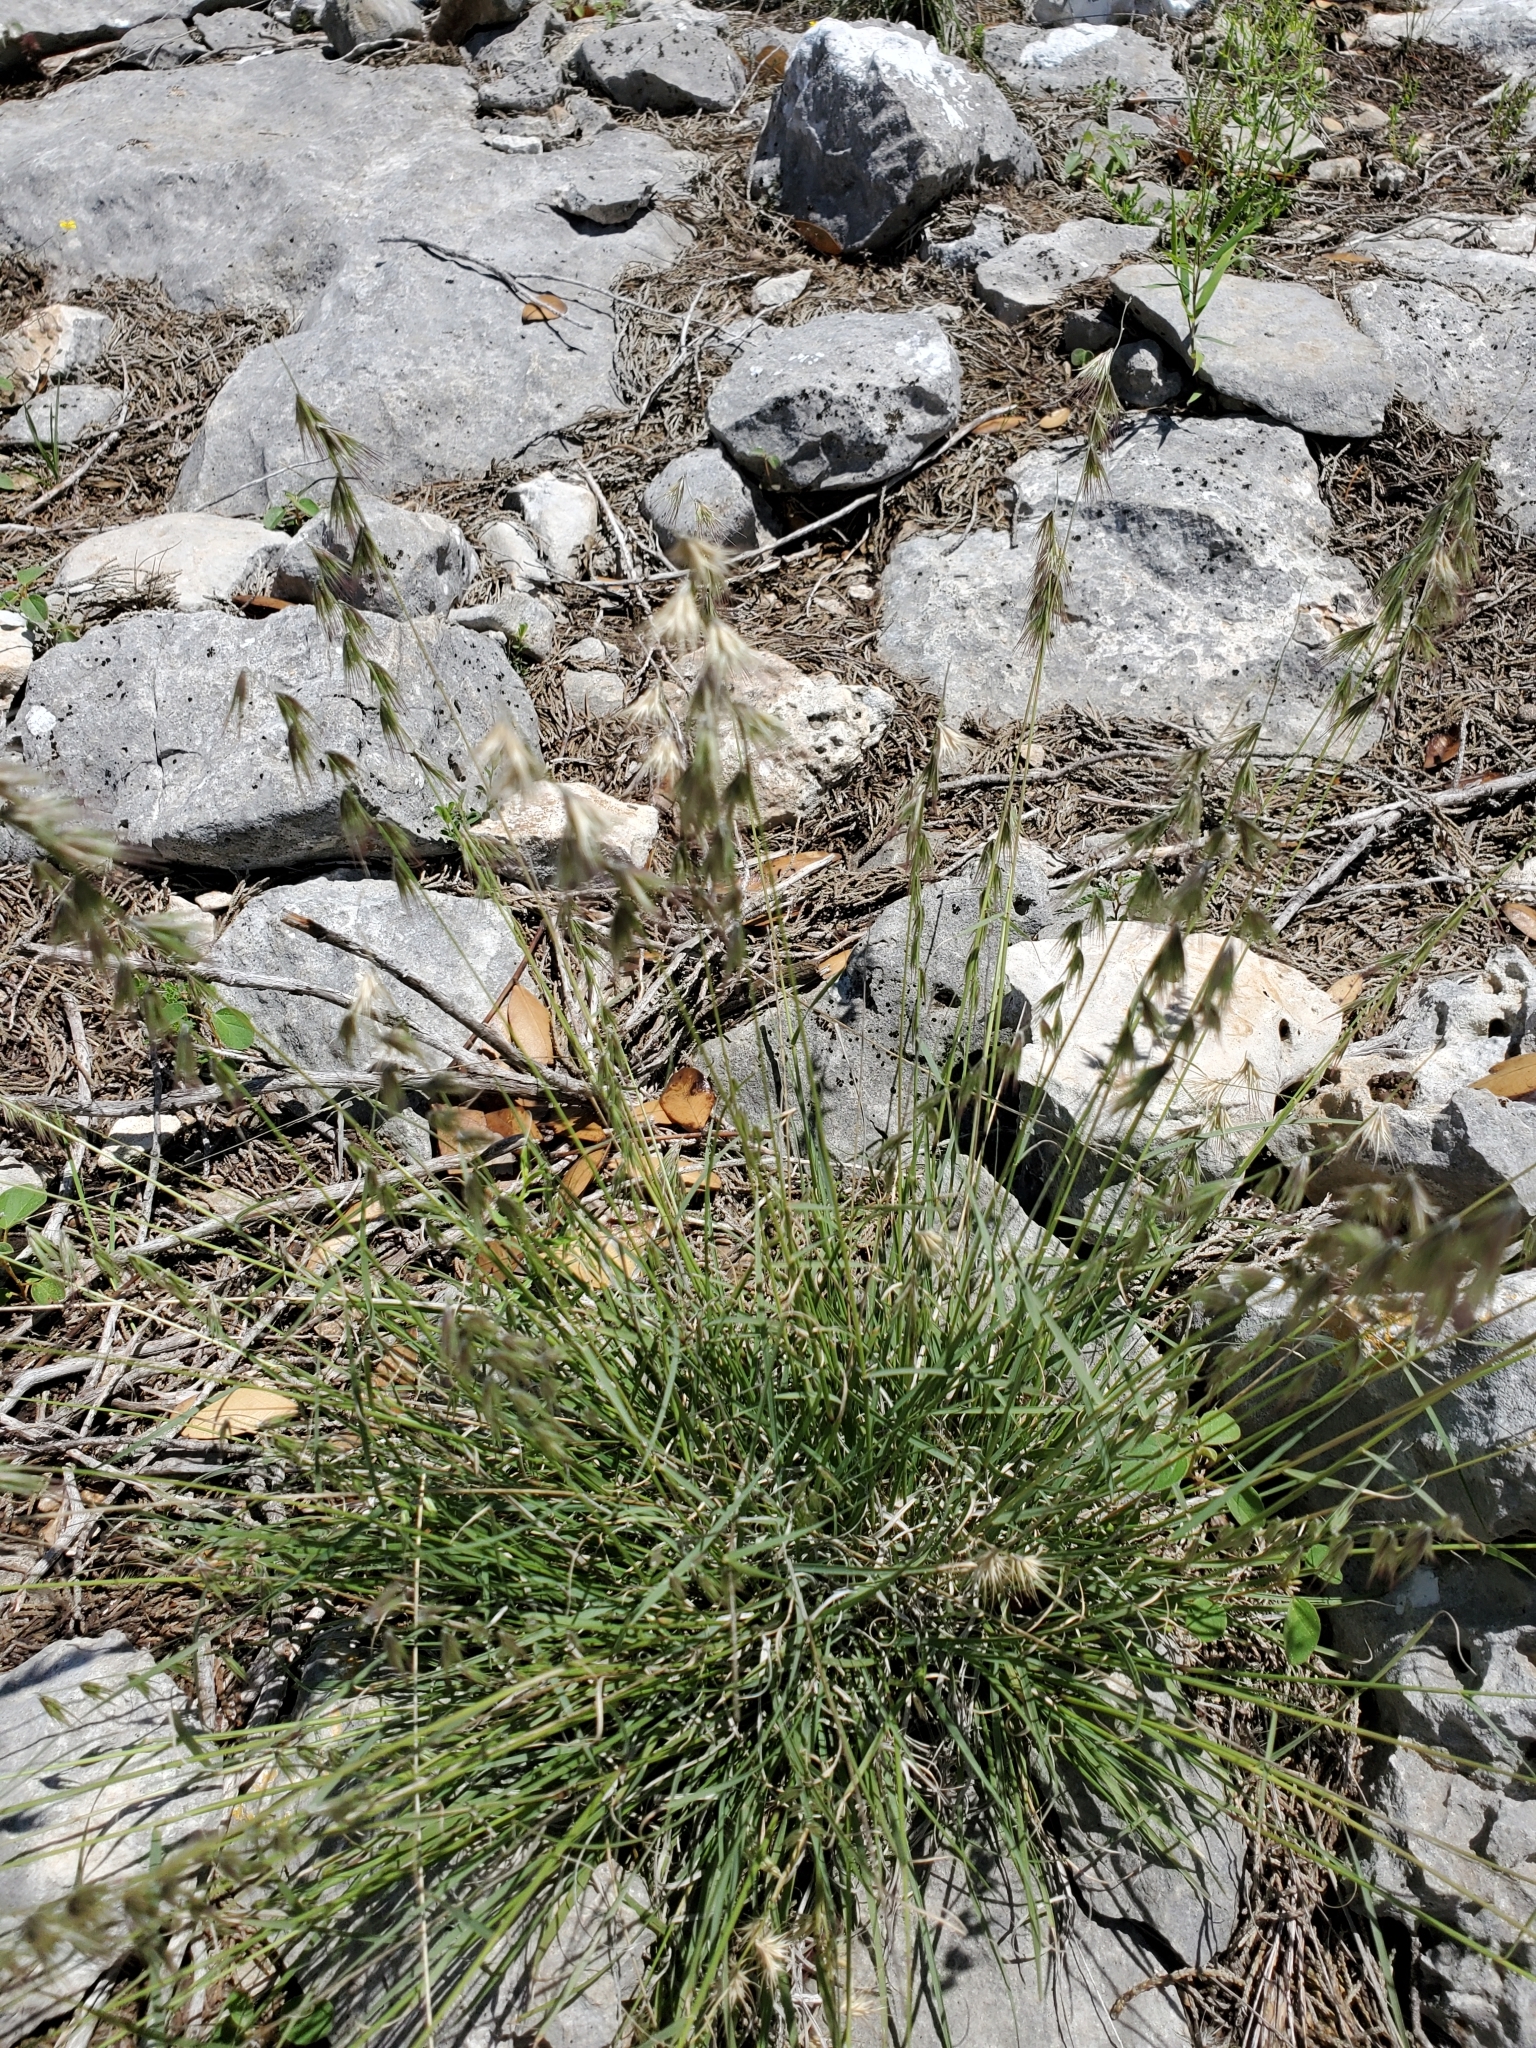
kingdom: Plantae
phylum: Tracheophyta
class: Liliopsida
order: Poales
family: Poaceae
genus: Bouteloua
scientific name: Bouteloua rigidiseta
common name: Texas grama
